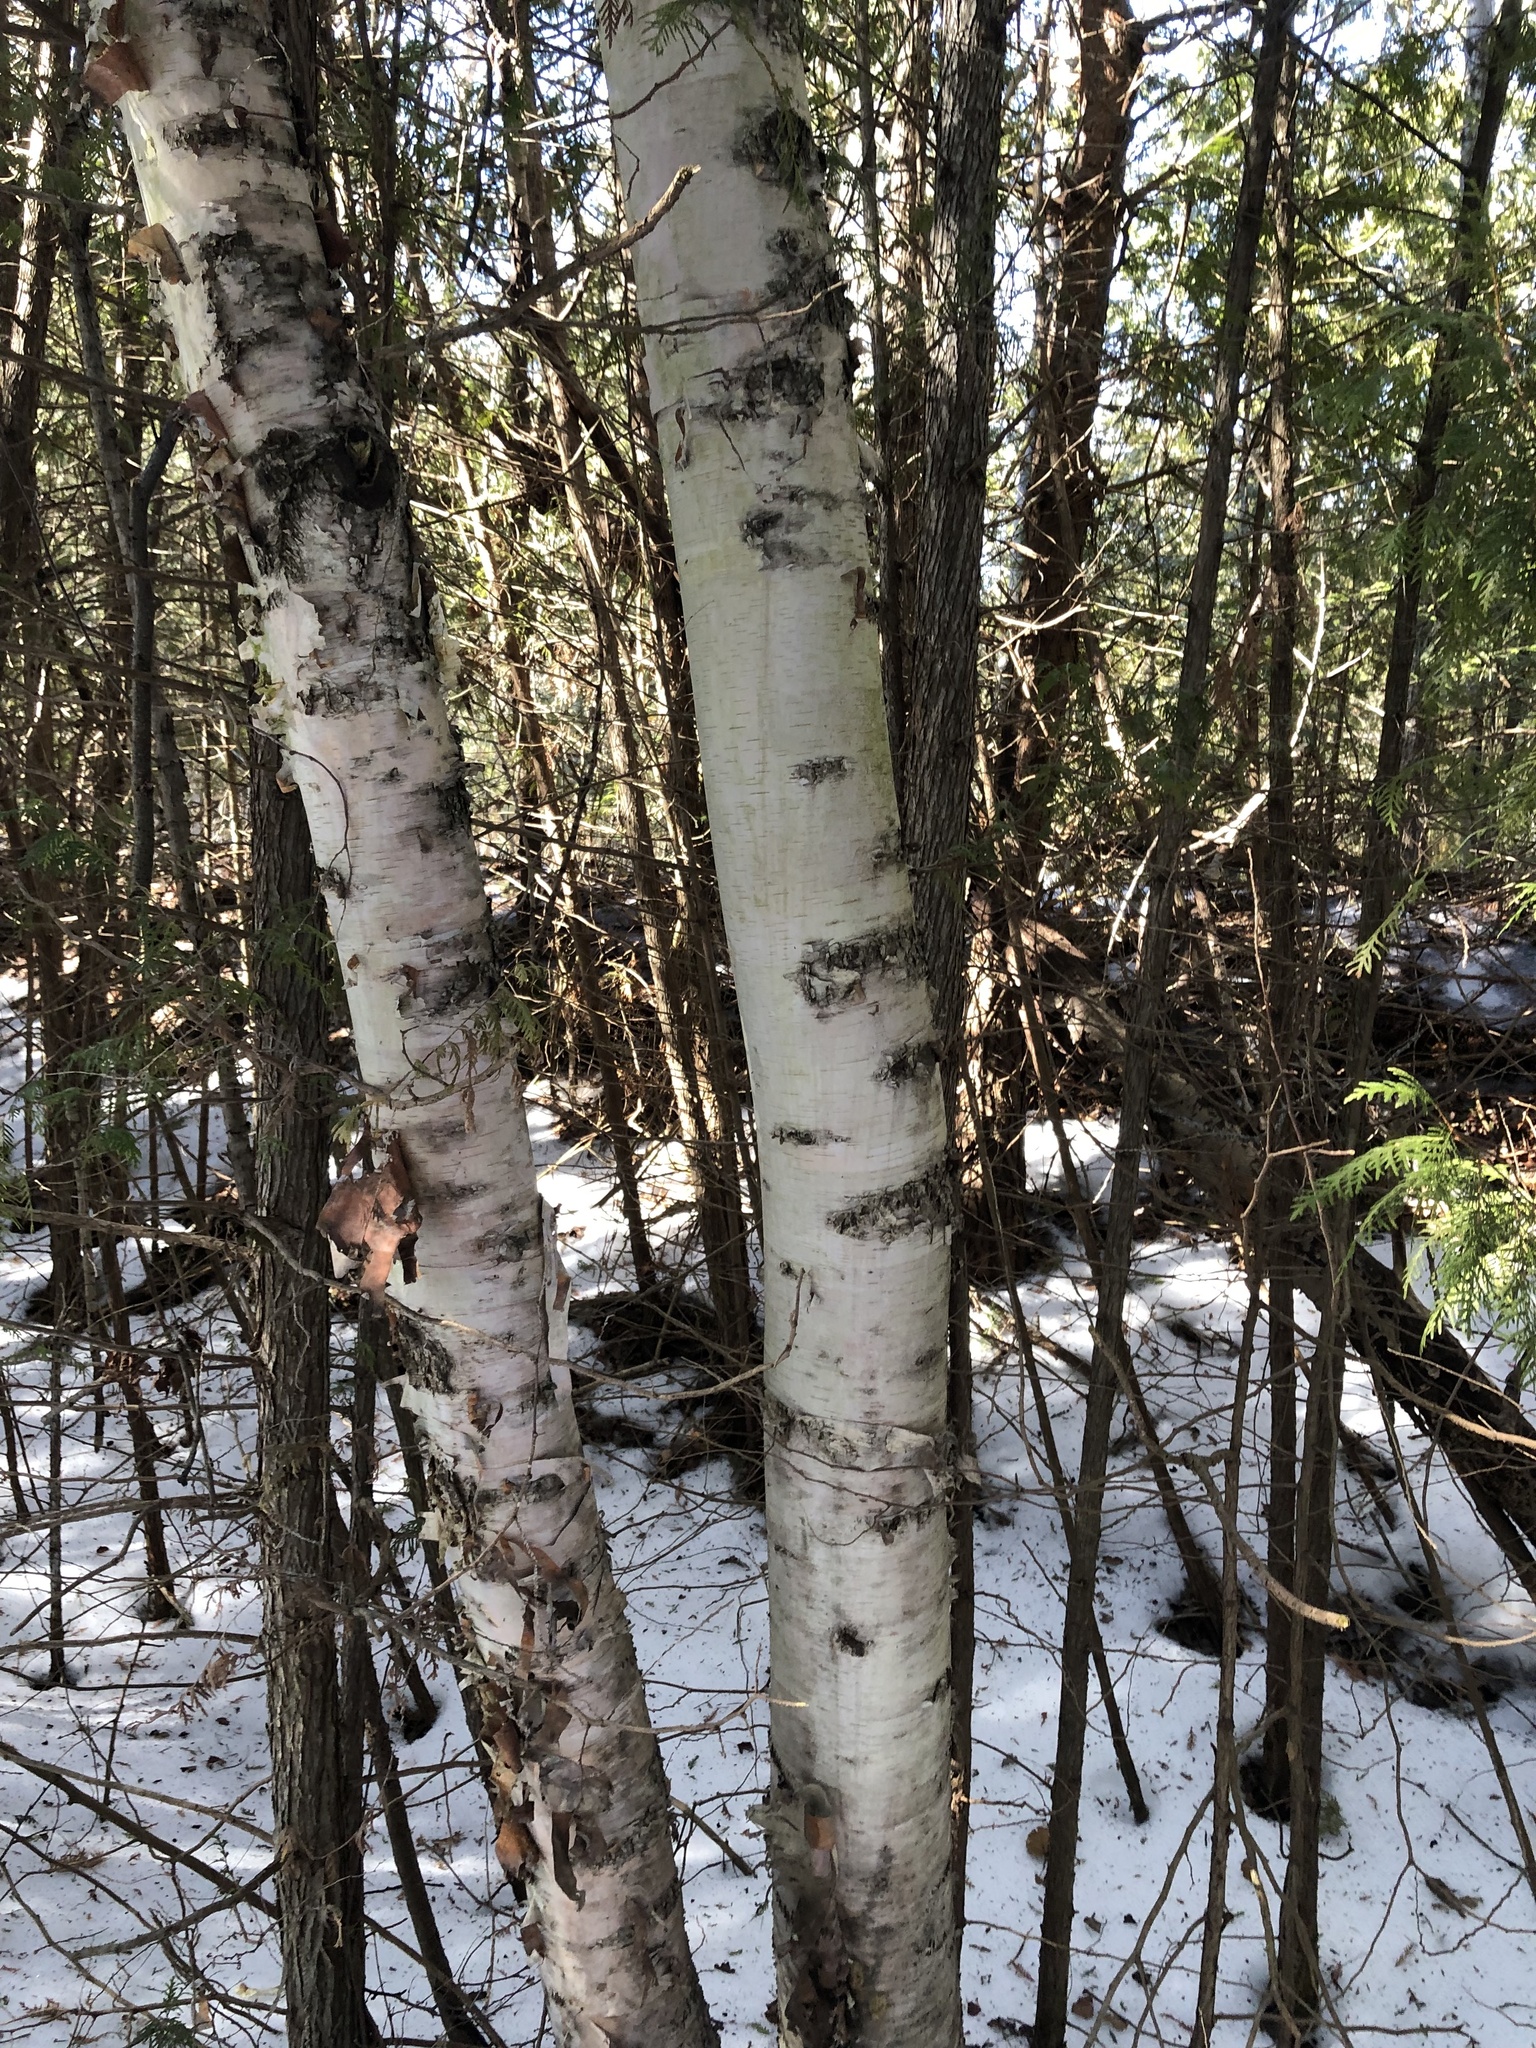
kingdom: Plantae
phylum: Tracheophyta
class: Magnoliopsida
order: Fagales
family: Betulaceae
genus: Betula
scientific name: Betula papyrifera
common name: Paper birch
